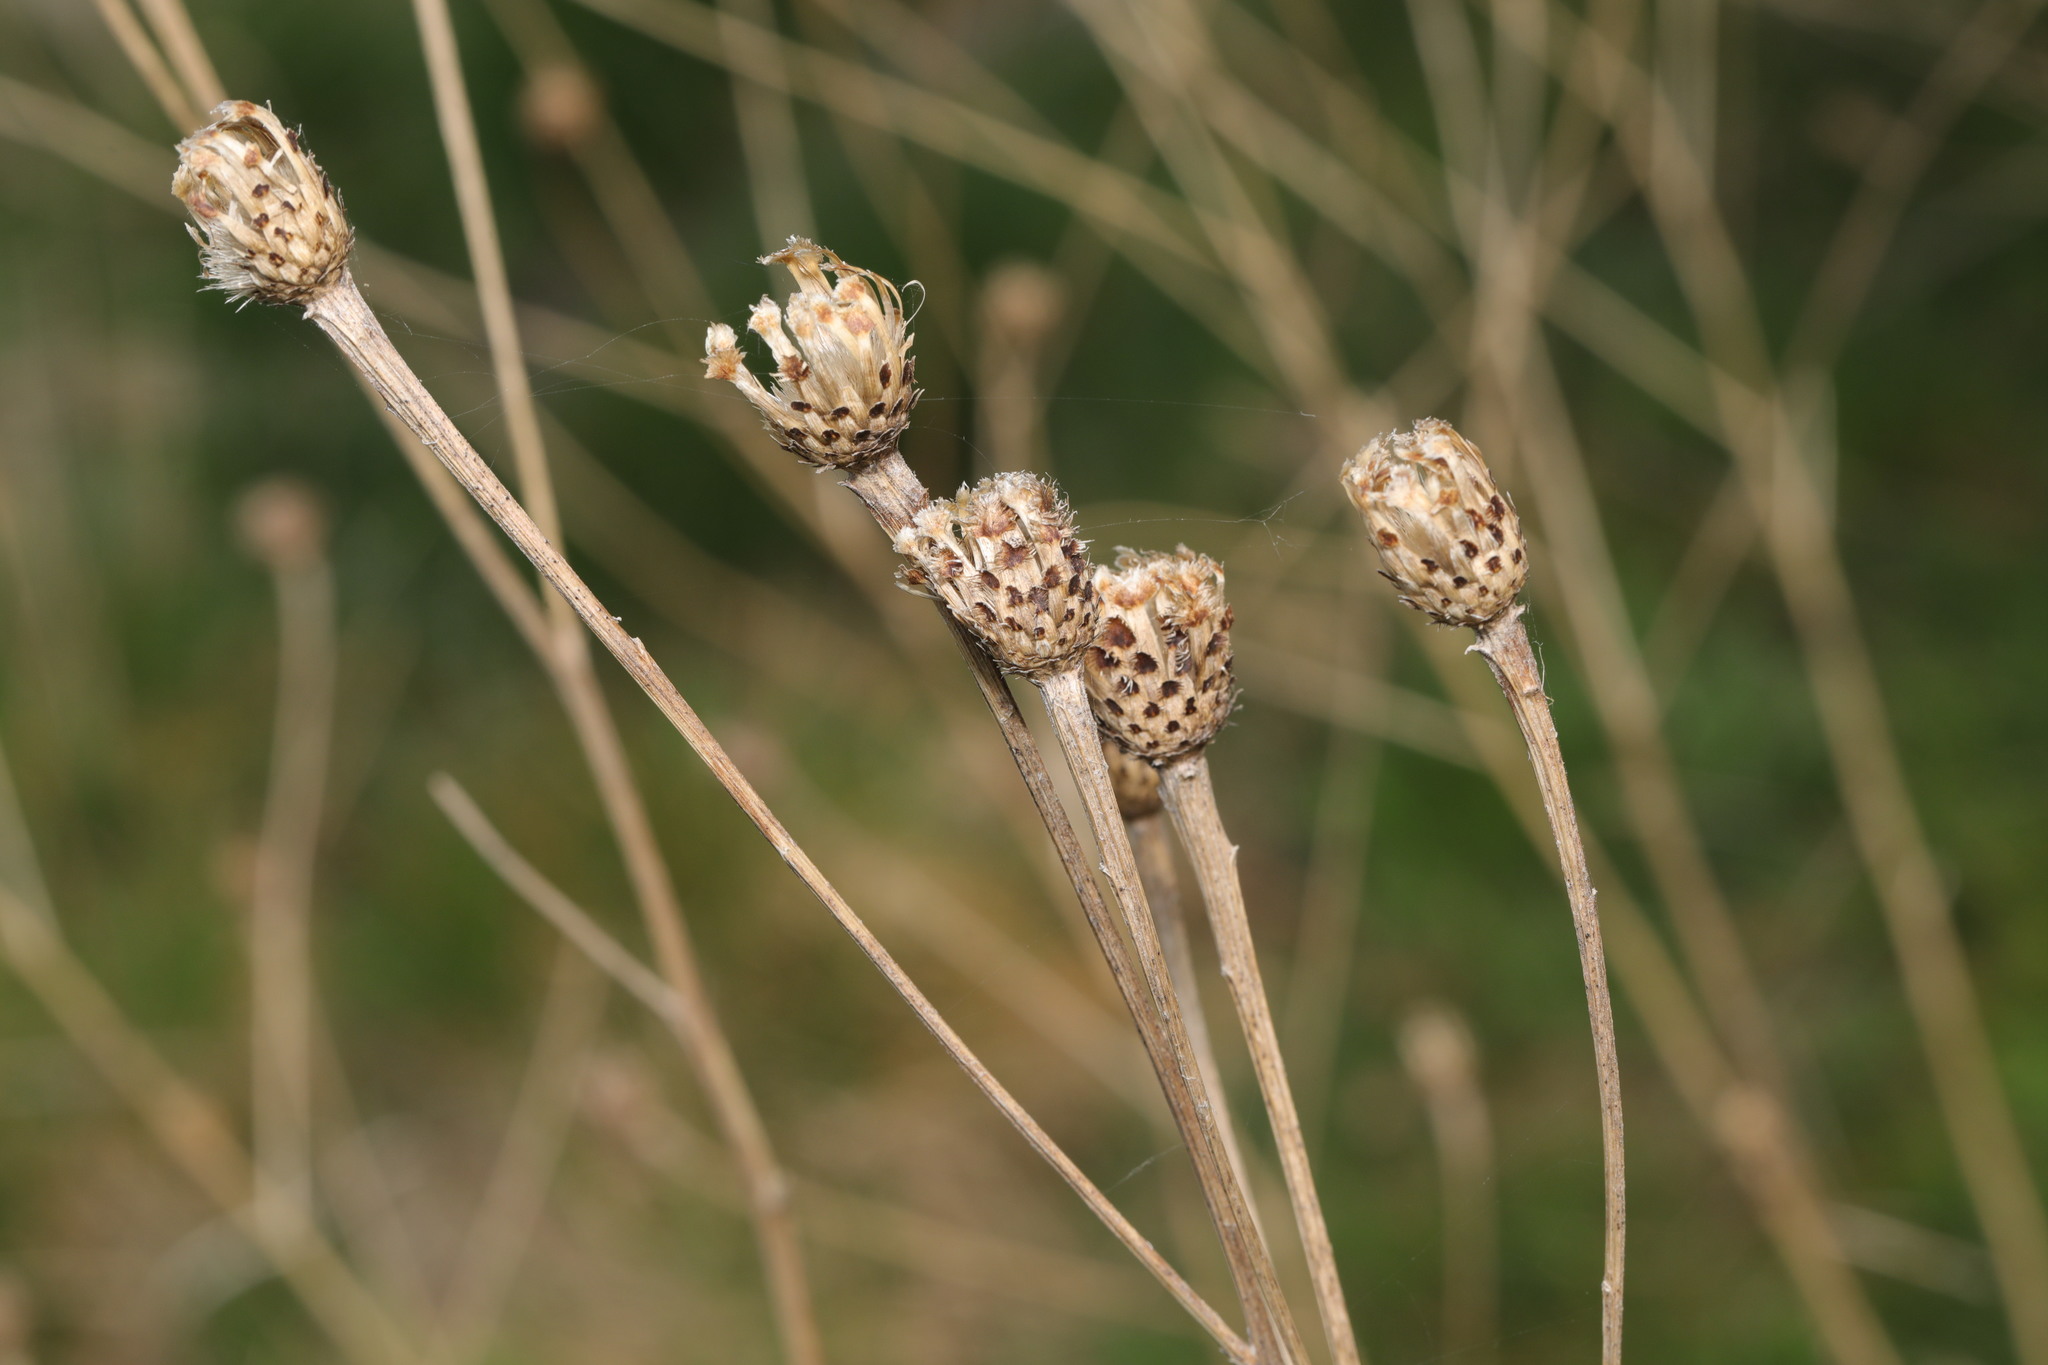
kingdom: Plantae
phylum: Tracheophyta
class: Magnoliopsida
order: Asterales
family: Asteraceae
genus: Centaurea
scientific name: Centaurea nigra
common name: Lesser knapweed
